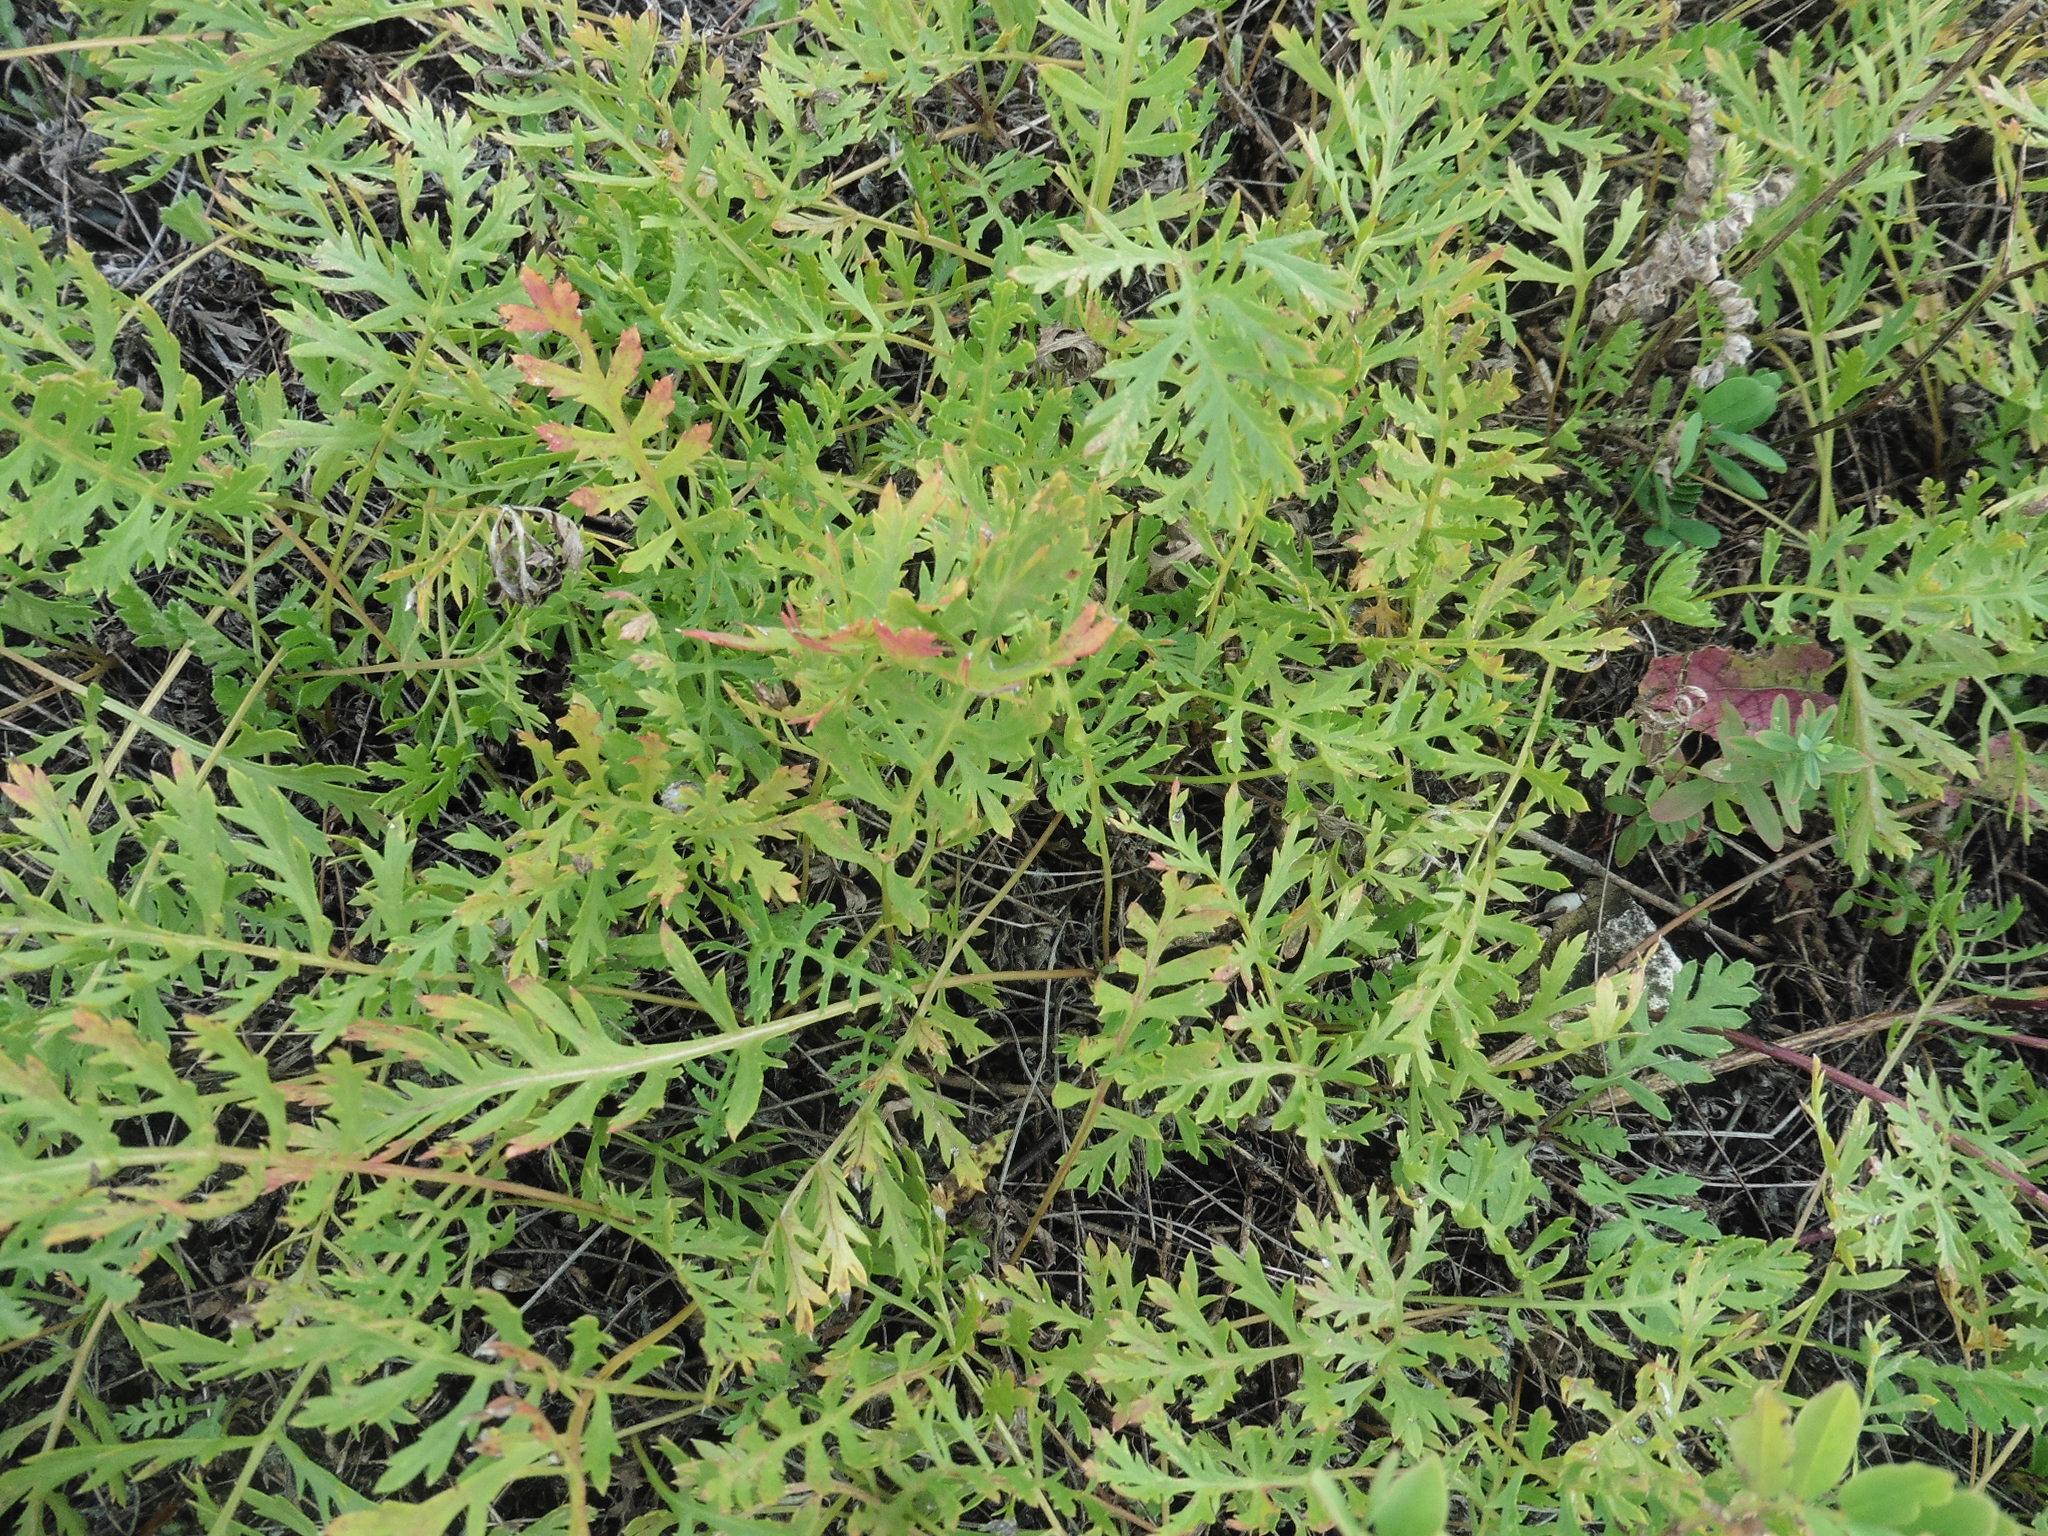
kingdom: Plantae
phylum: Tracheophyta
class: Magnoliopsida
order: Asterales
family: Asteraceae
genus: Artemisia
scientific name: Artemisia latifolia
